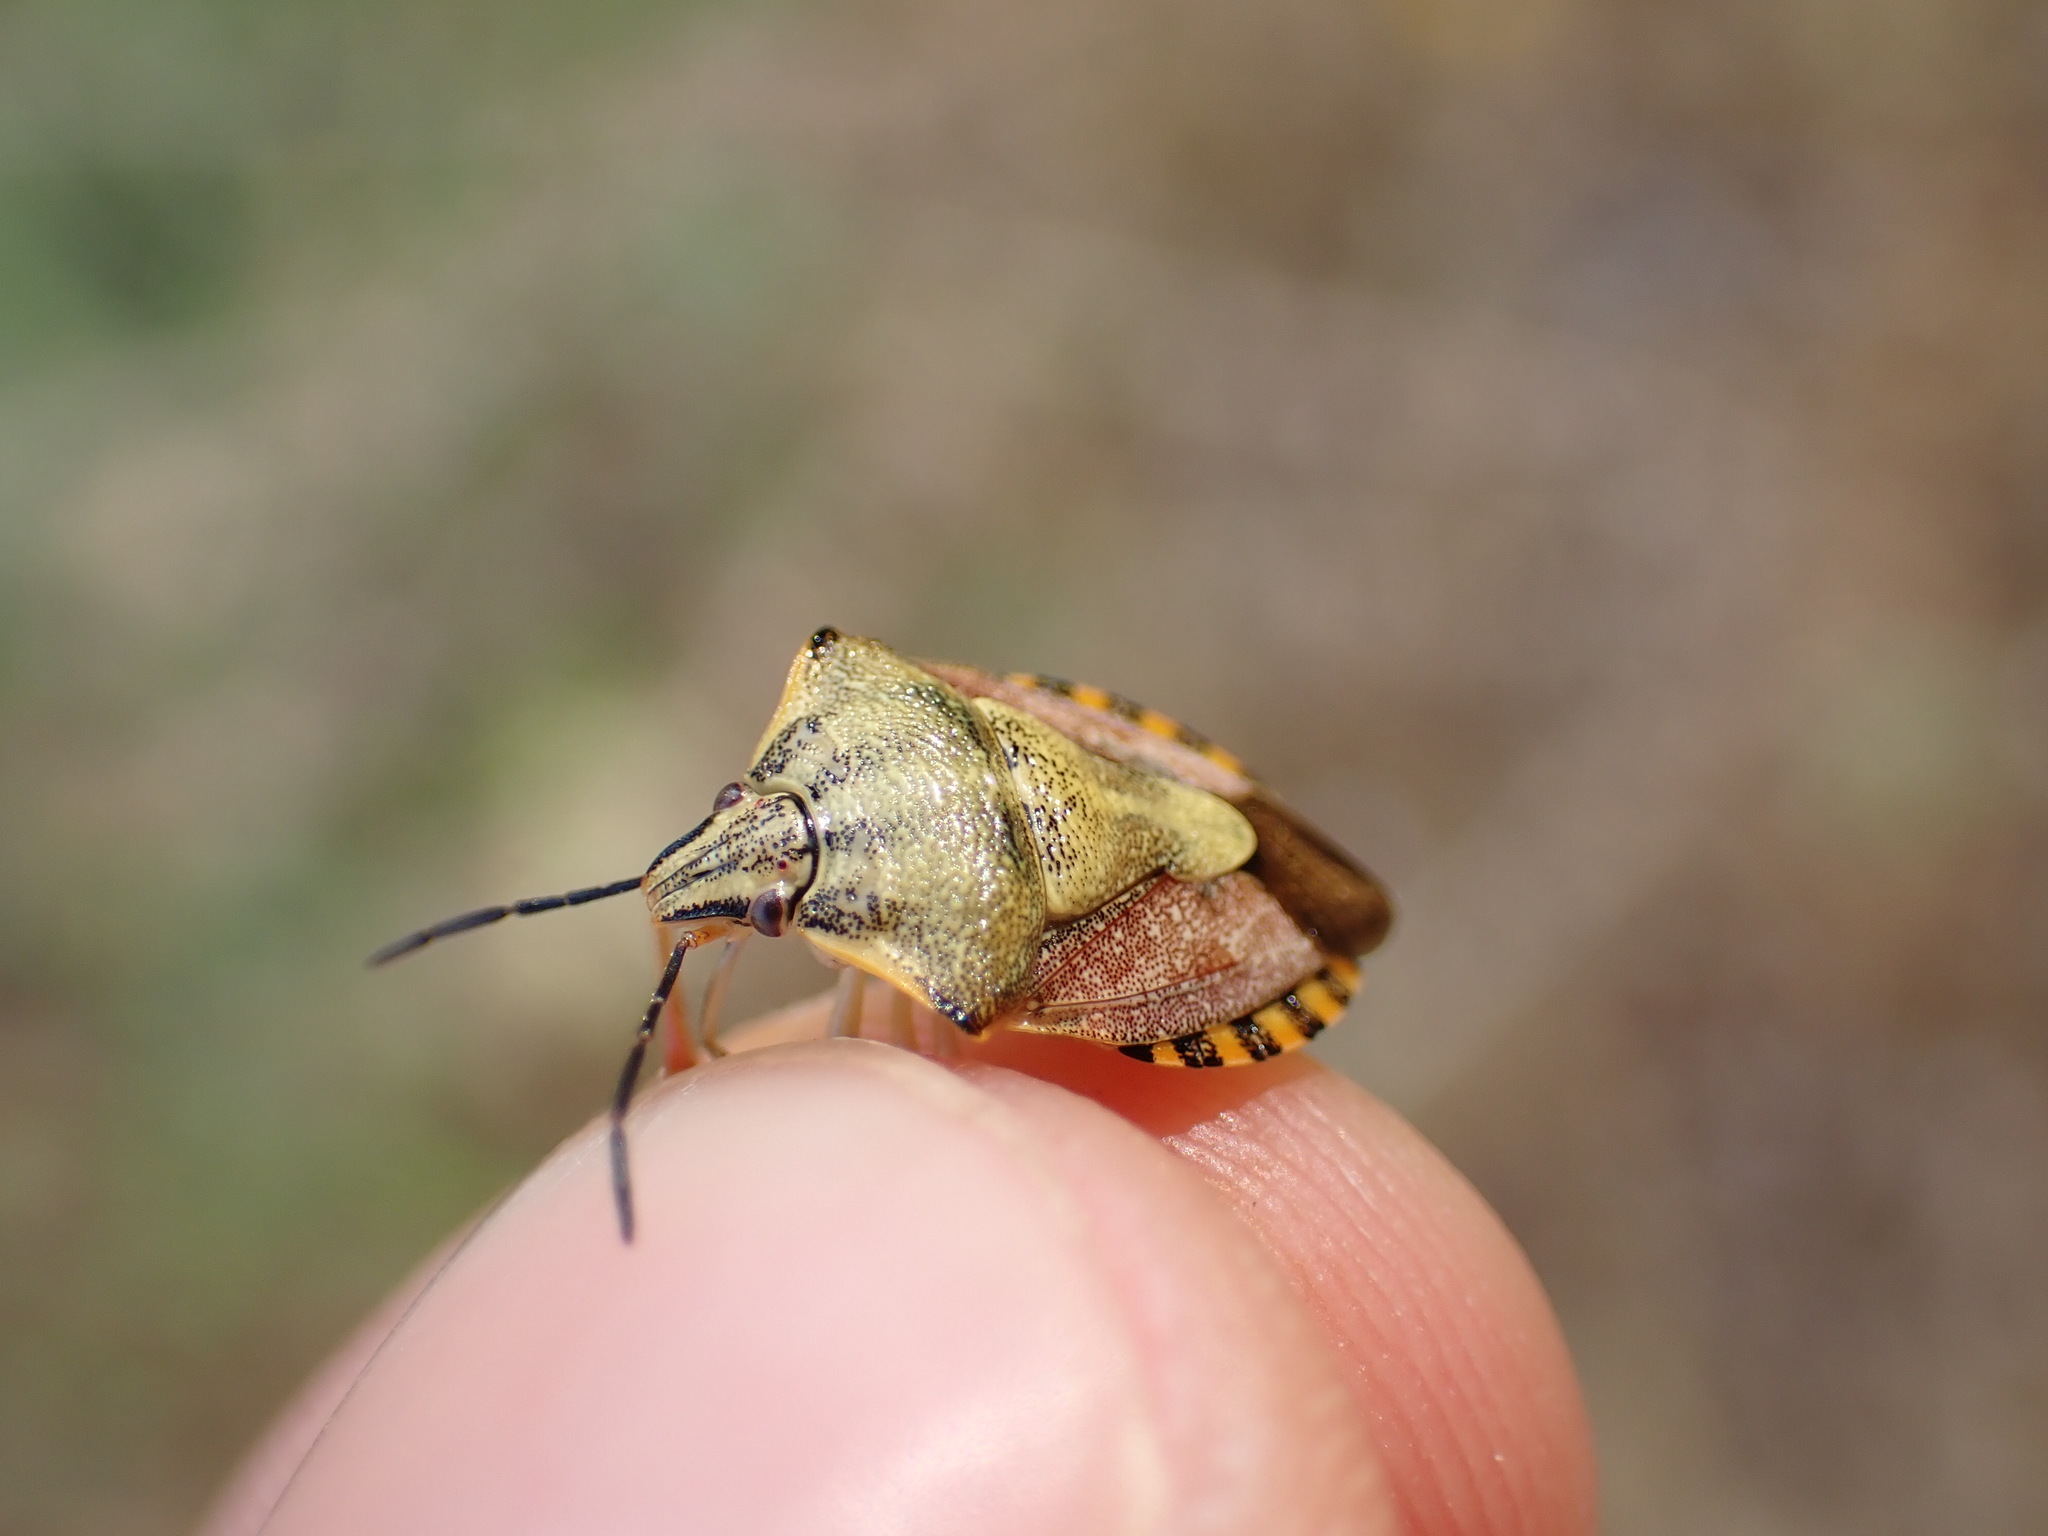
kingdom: Animalia
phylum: Arthropoda
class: Insecta
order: Hemiptera
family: Pentatomidae
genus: Carpocoris
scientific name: Carpocoris purpureipennis
